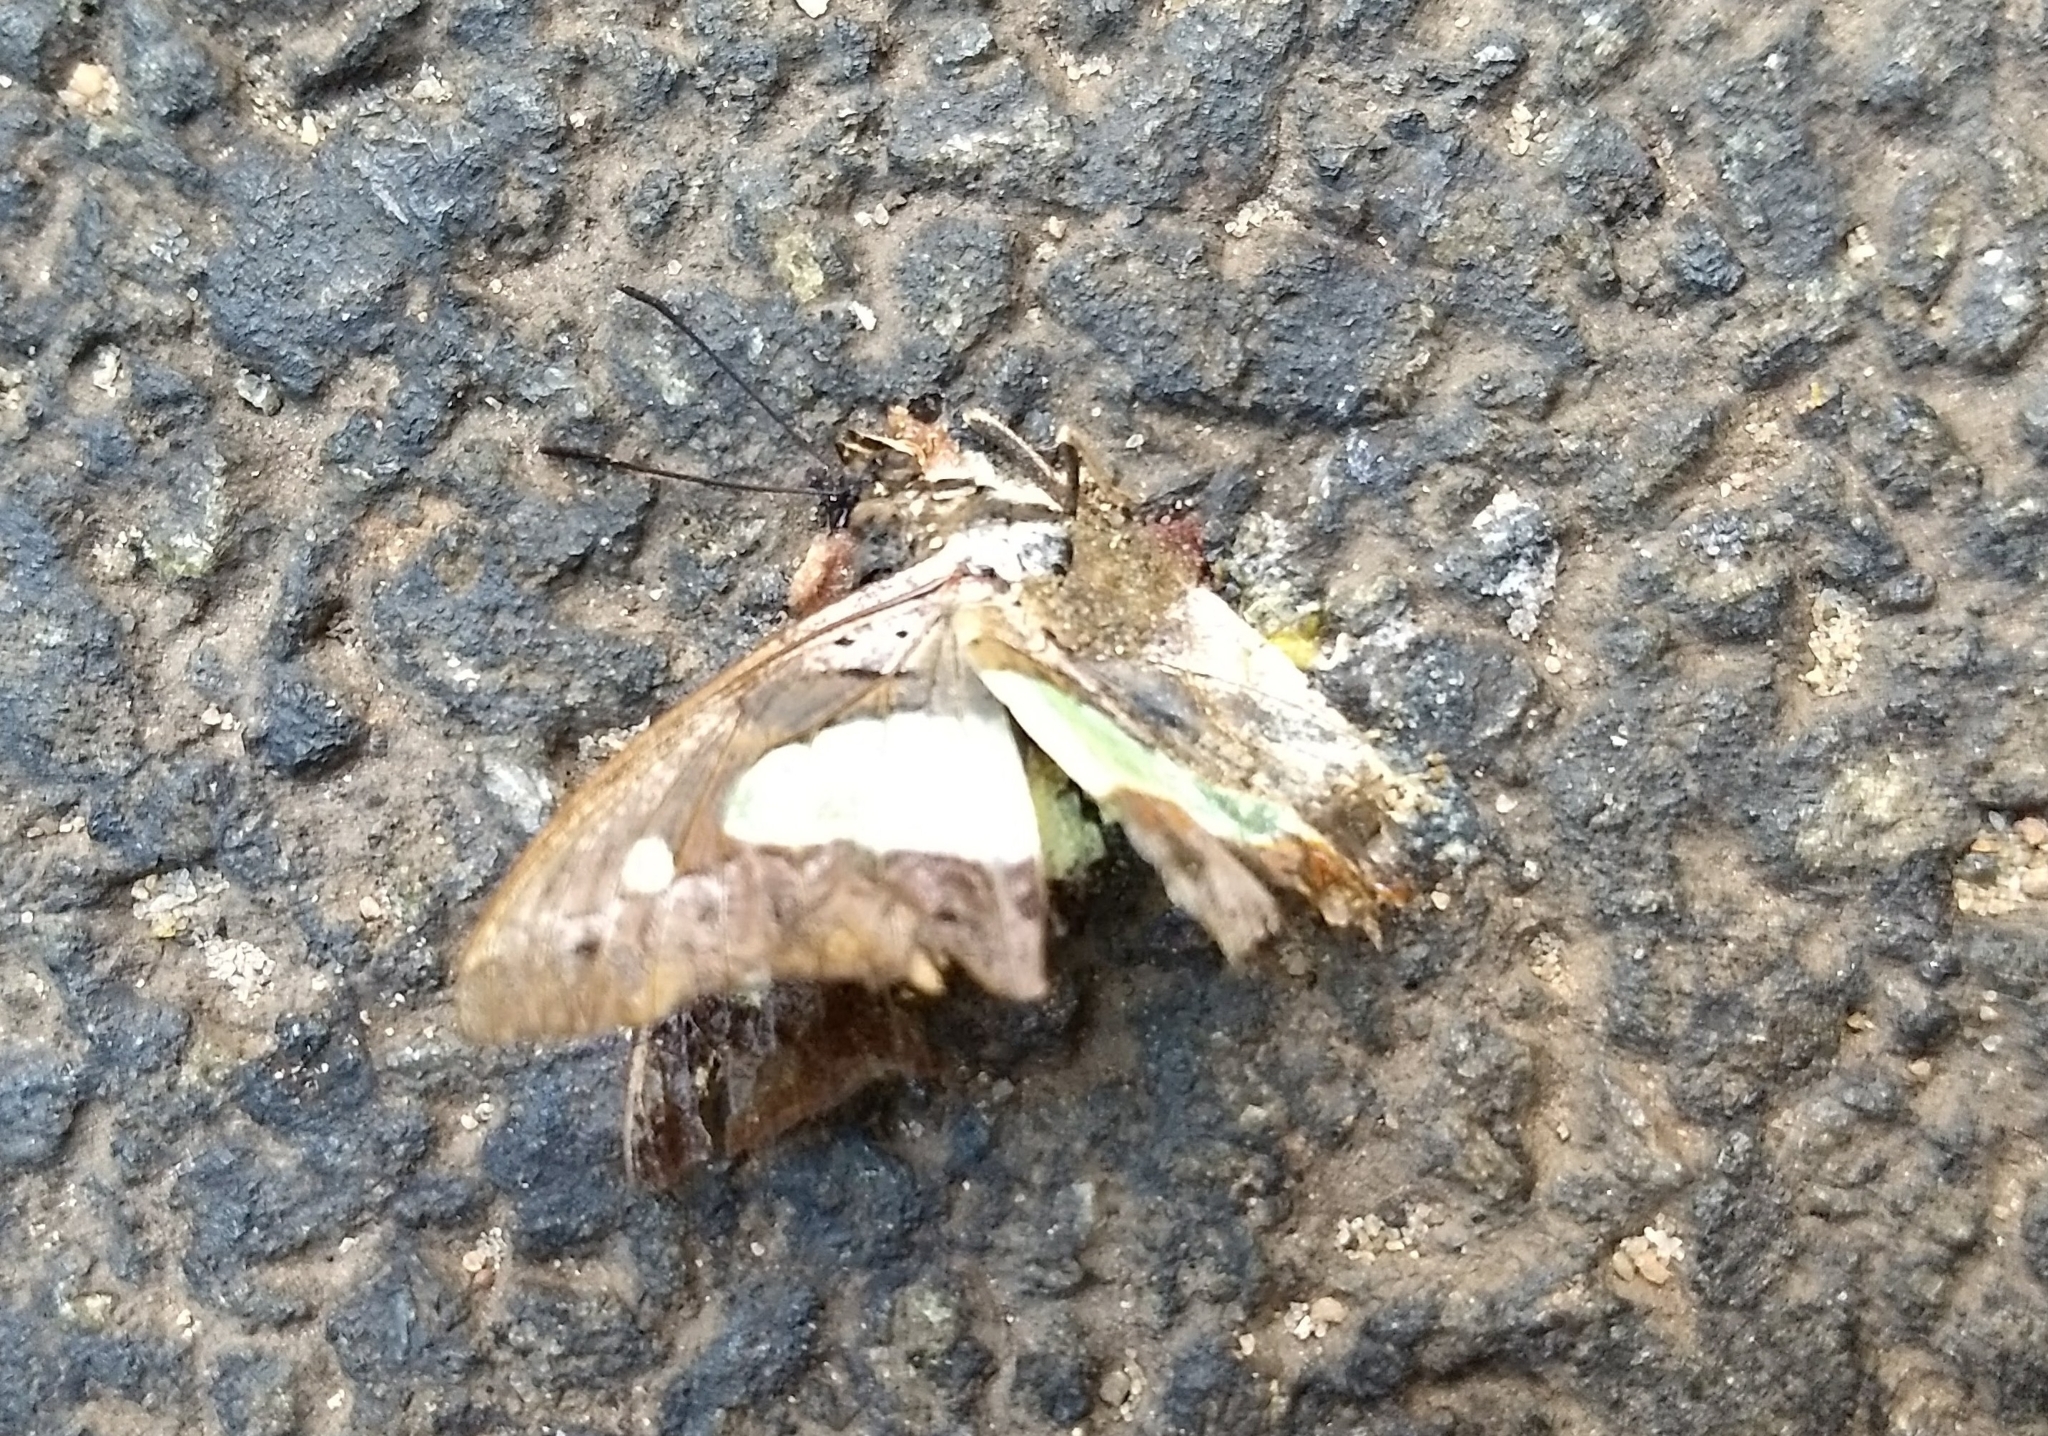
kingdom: Animalia
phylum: Arthropoda
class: Insecta
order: Lepidoptera
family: Nymphalidae
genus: Polyura
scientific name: Polyura
